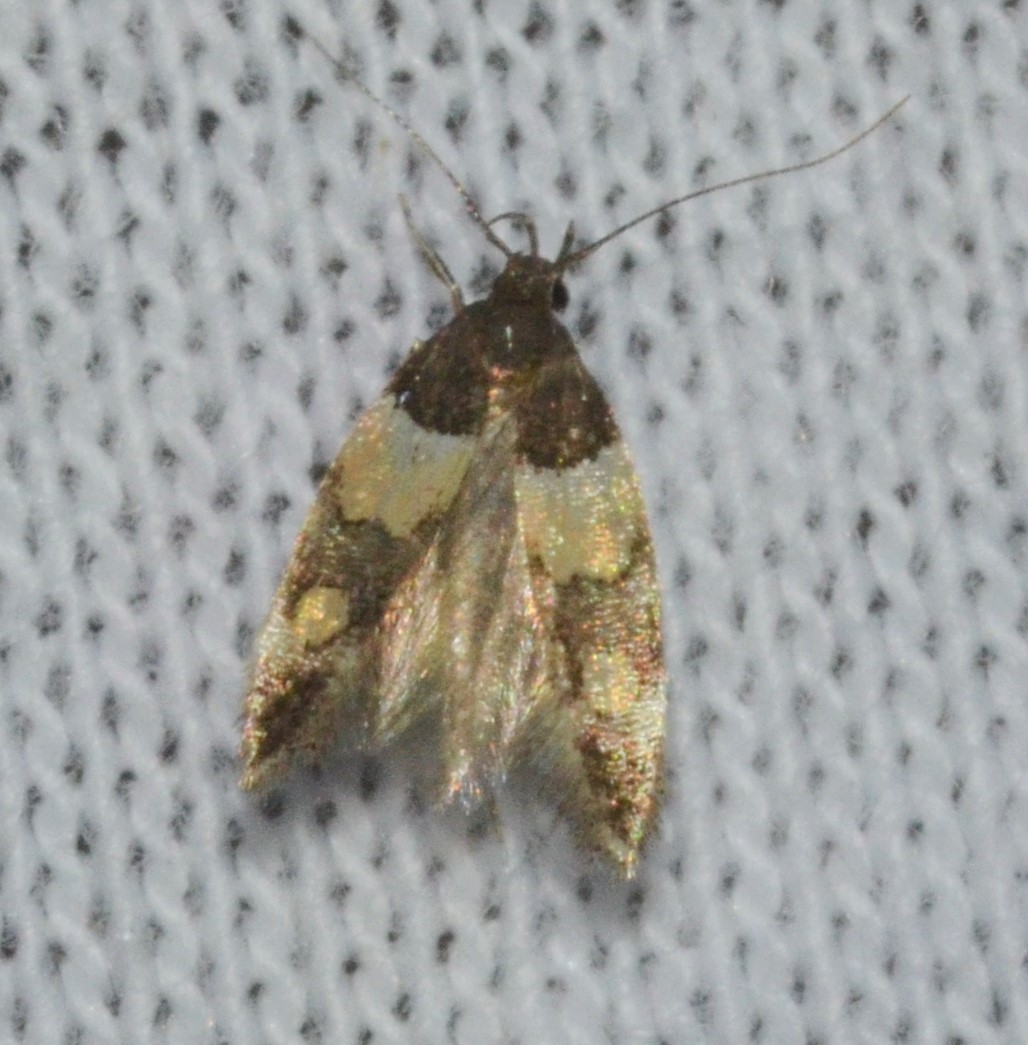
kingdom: Animalia
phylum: Arthropoda
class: Insecta
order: Lepidoptera
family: Momphidae
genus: Triclonella
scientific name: Triclonella determinatella
